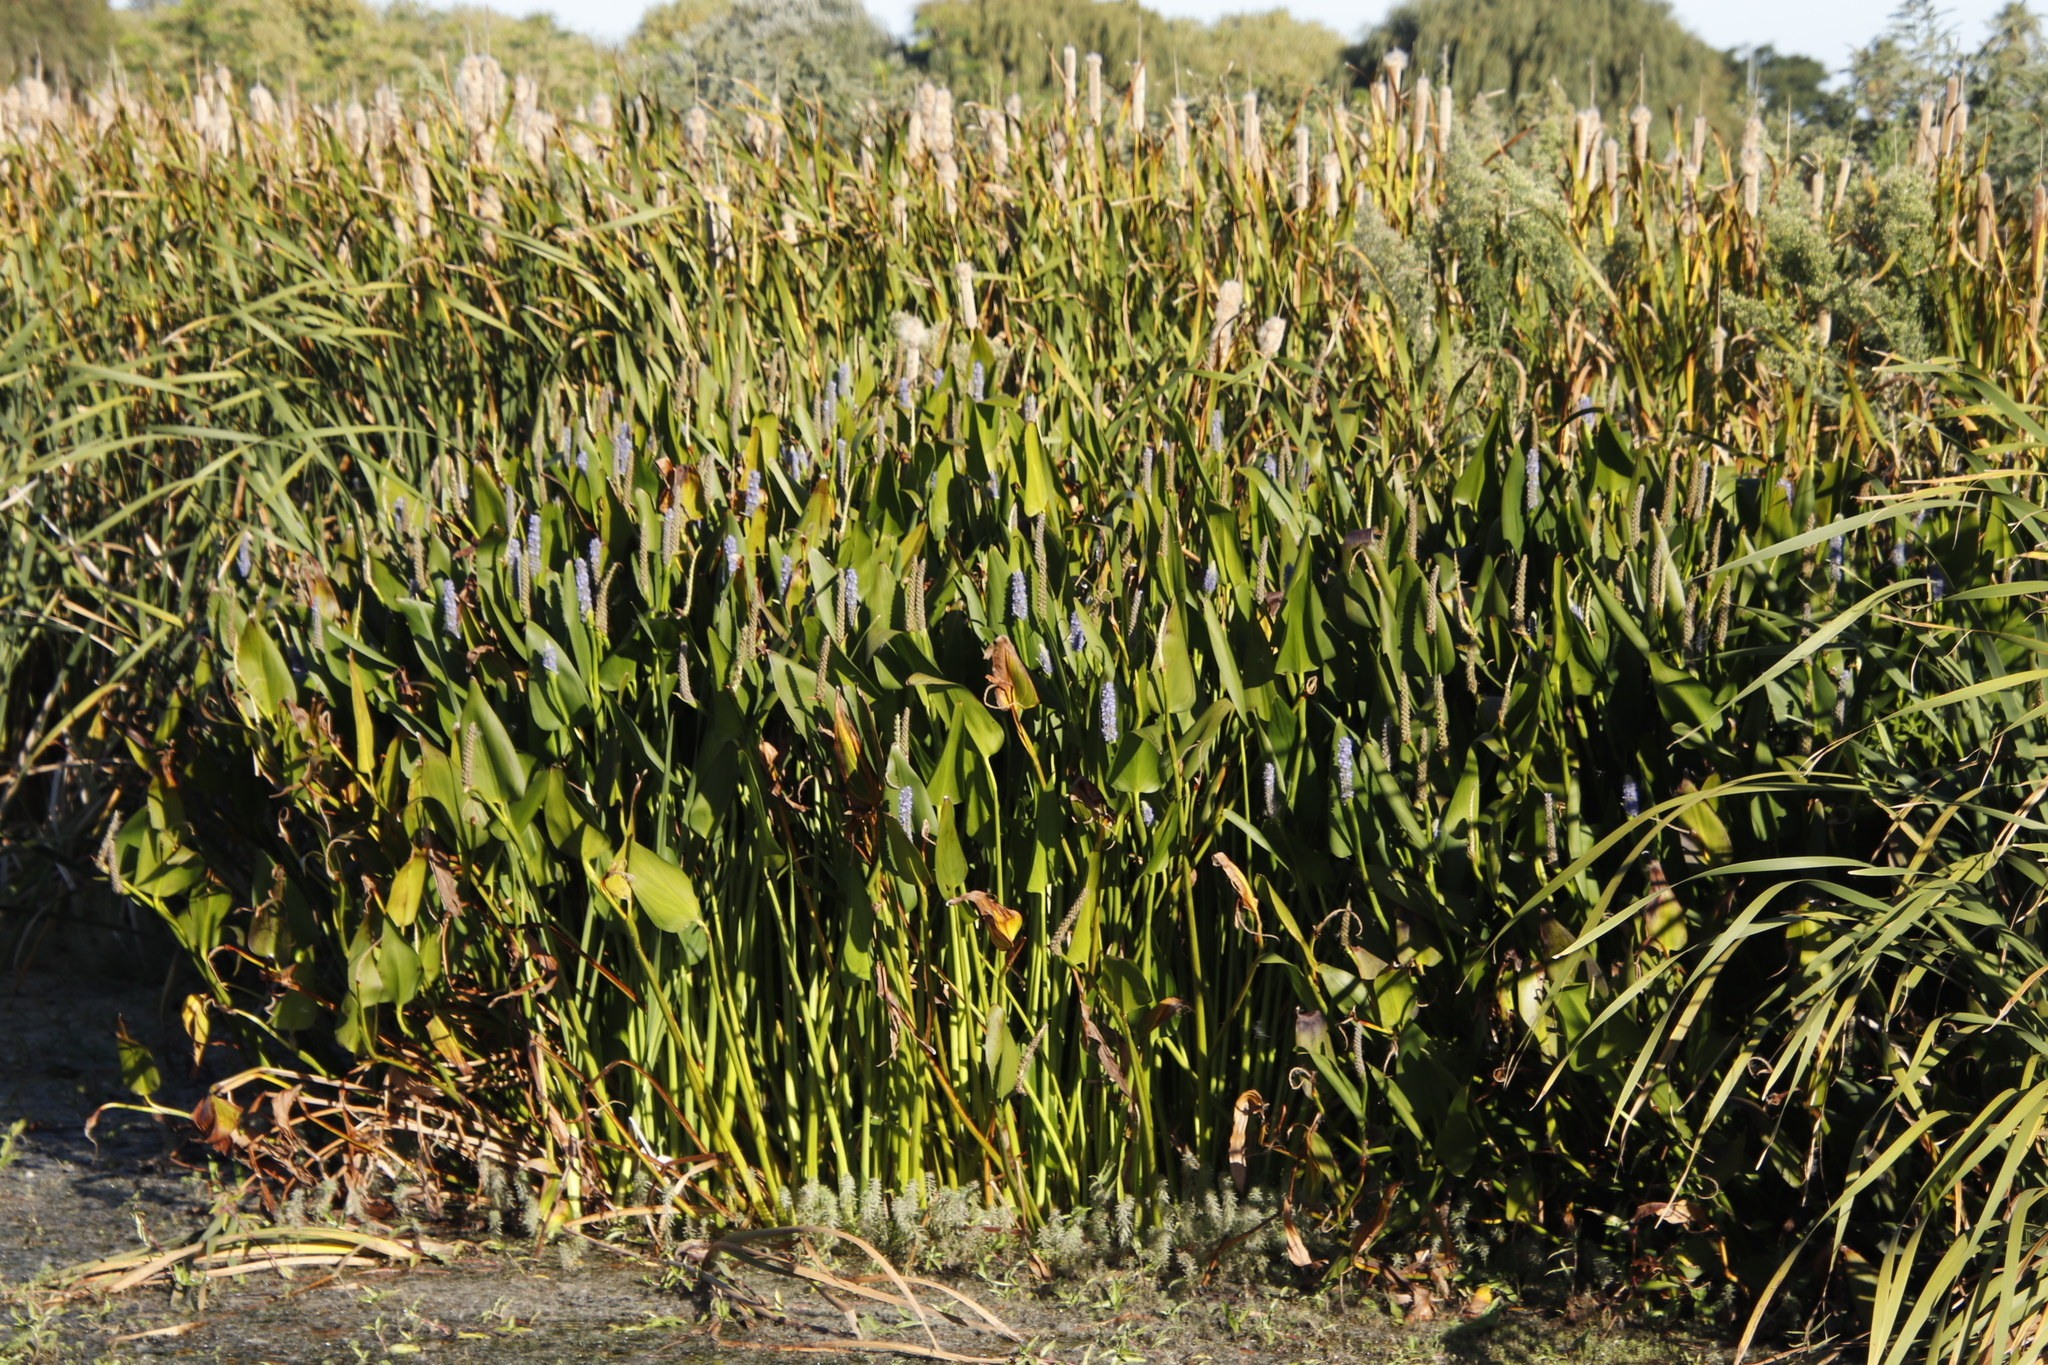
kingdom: Plantae
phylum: Tracheophyta
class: Liliopsida
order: Commelinales
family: Pontederiaceae
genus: Pontederia
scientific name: Pontederia cordata
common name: Pickerelweed
